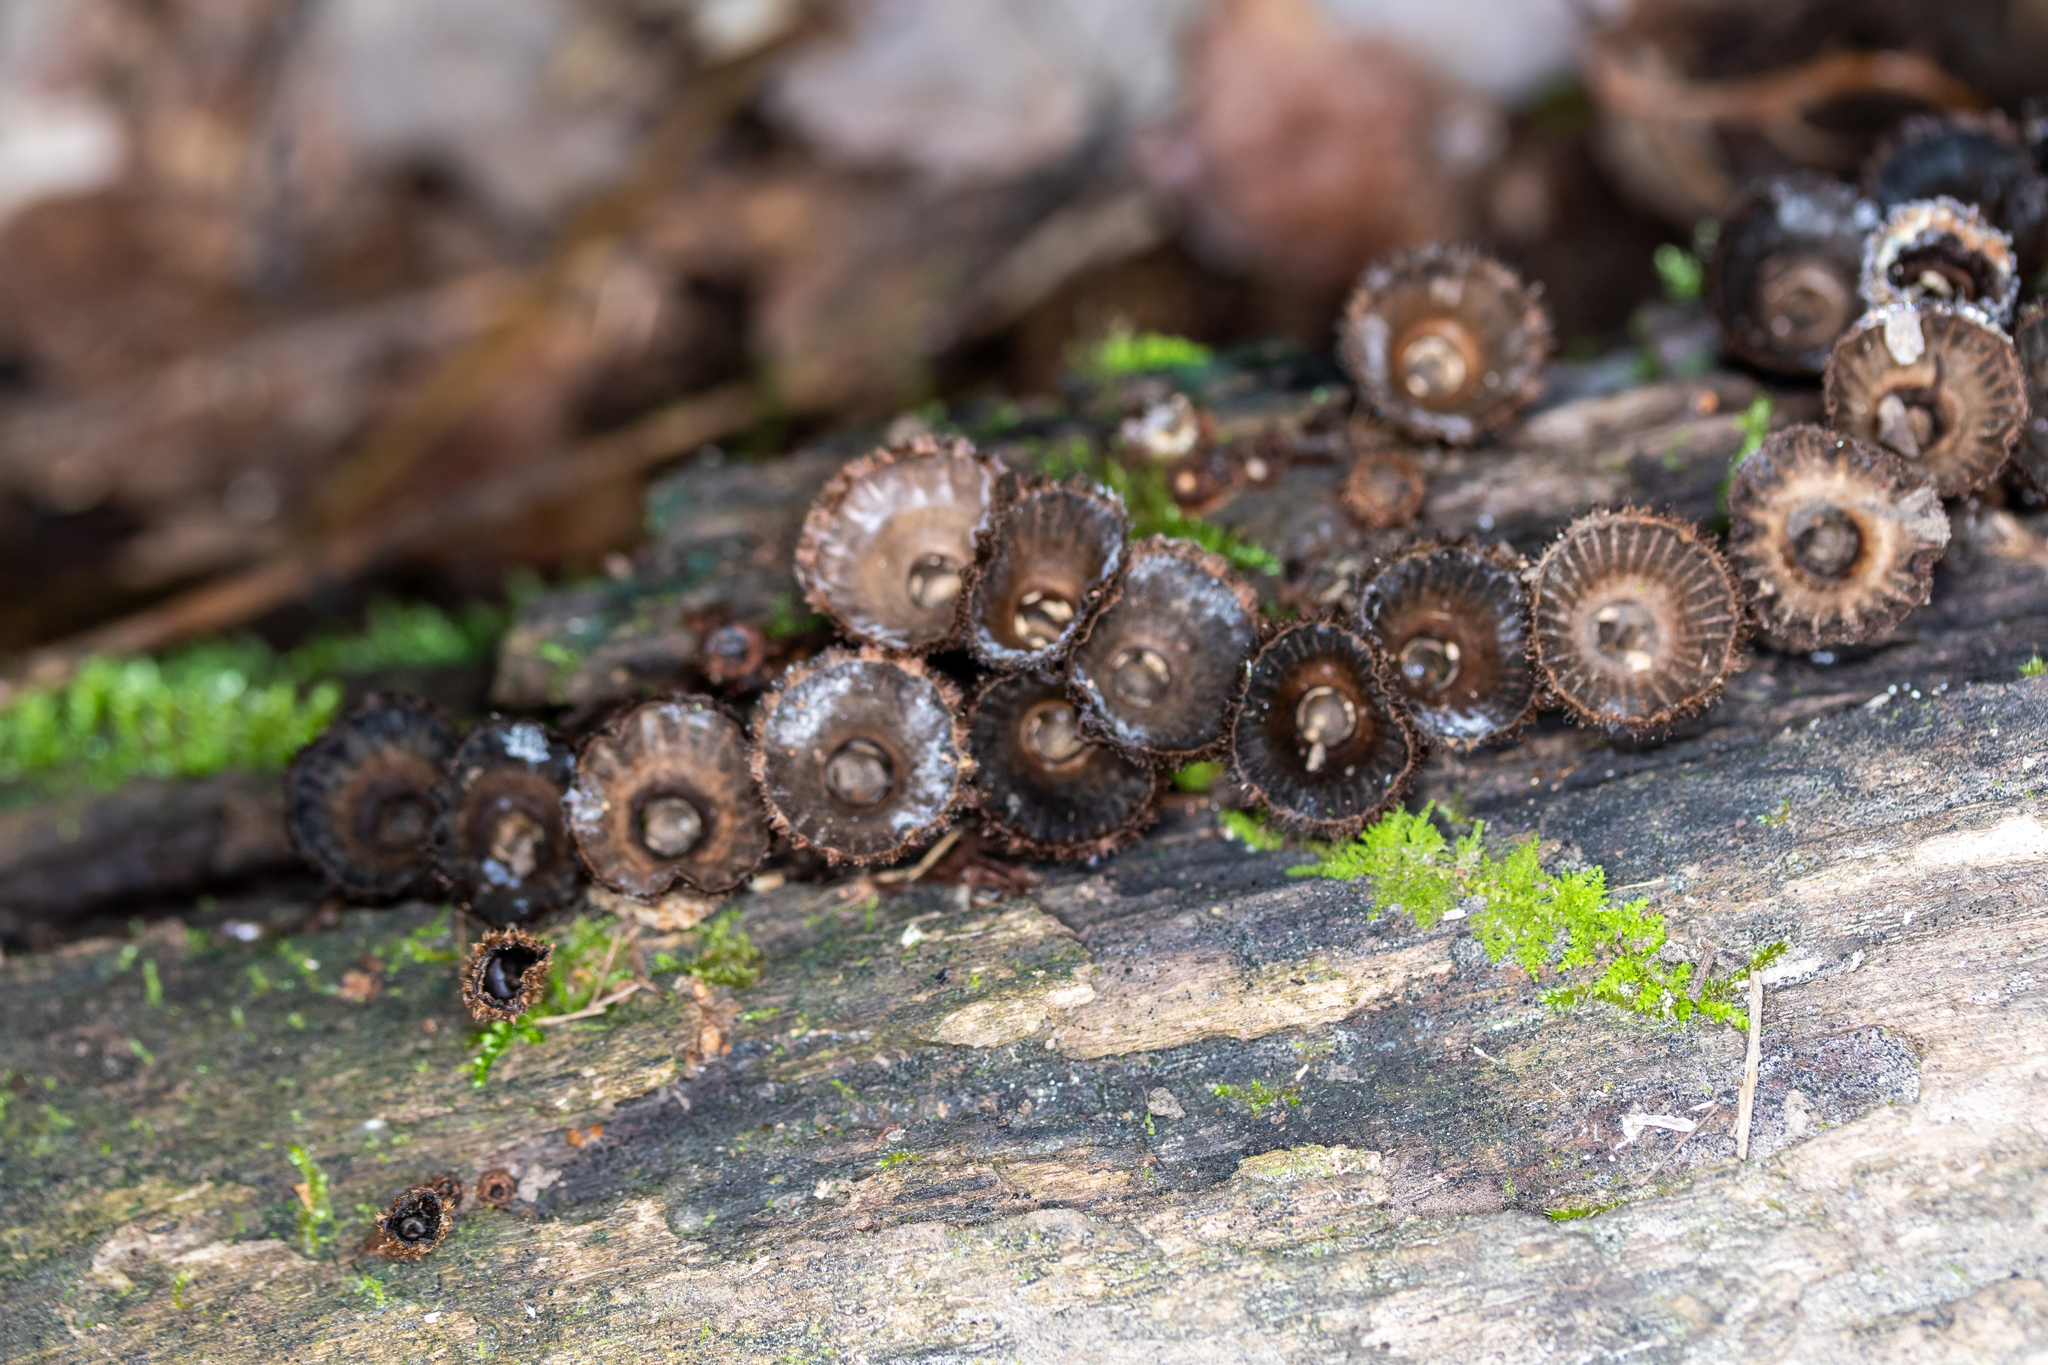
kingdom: Fungi
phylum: Basidiomycota
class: Agaricomycetes
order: Agaricales
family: Agaricaceae
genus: Cyathus
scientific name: Cyathus striatus
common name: Fluted bird's nest
